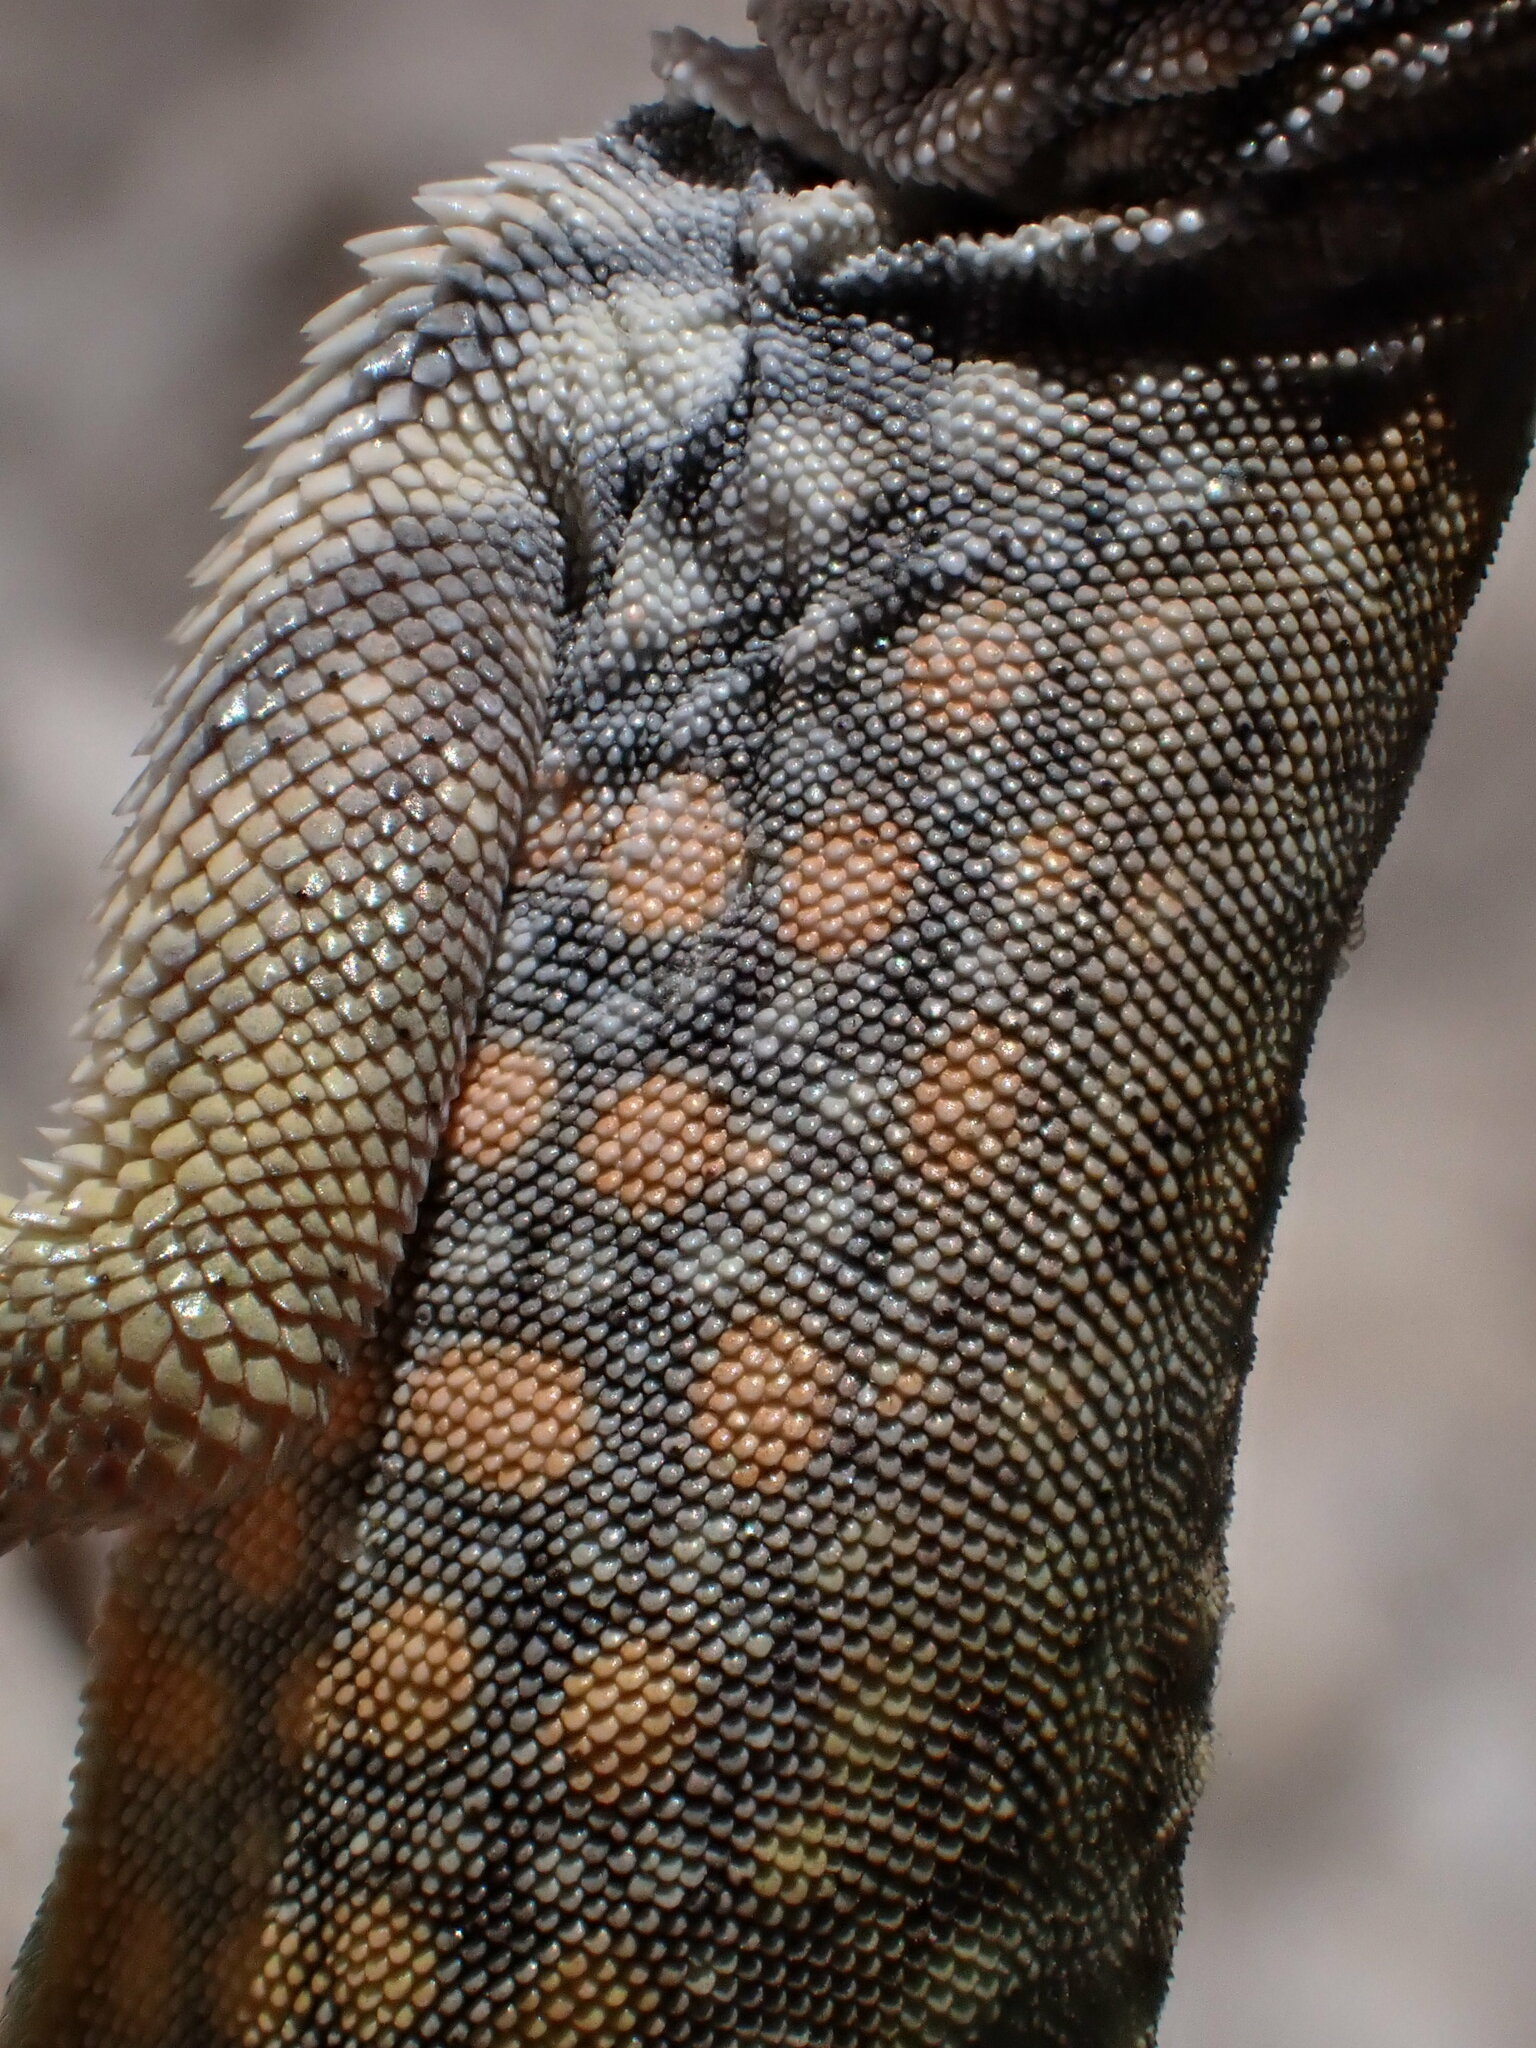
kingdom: Animalia
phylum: Chordata
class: Squamata
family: Phrynosomatidae
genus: Cophosaurus
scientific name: Cophosaurus texanus
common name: Greater earless lizard
